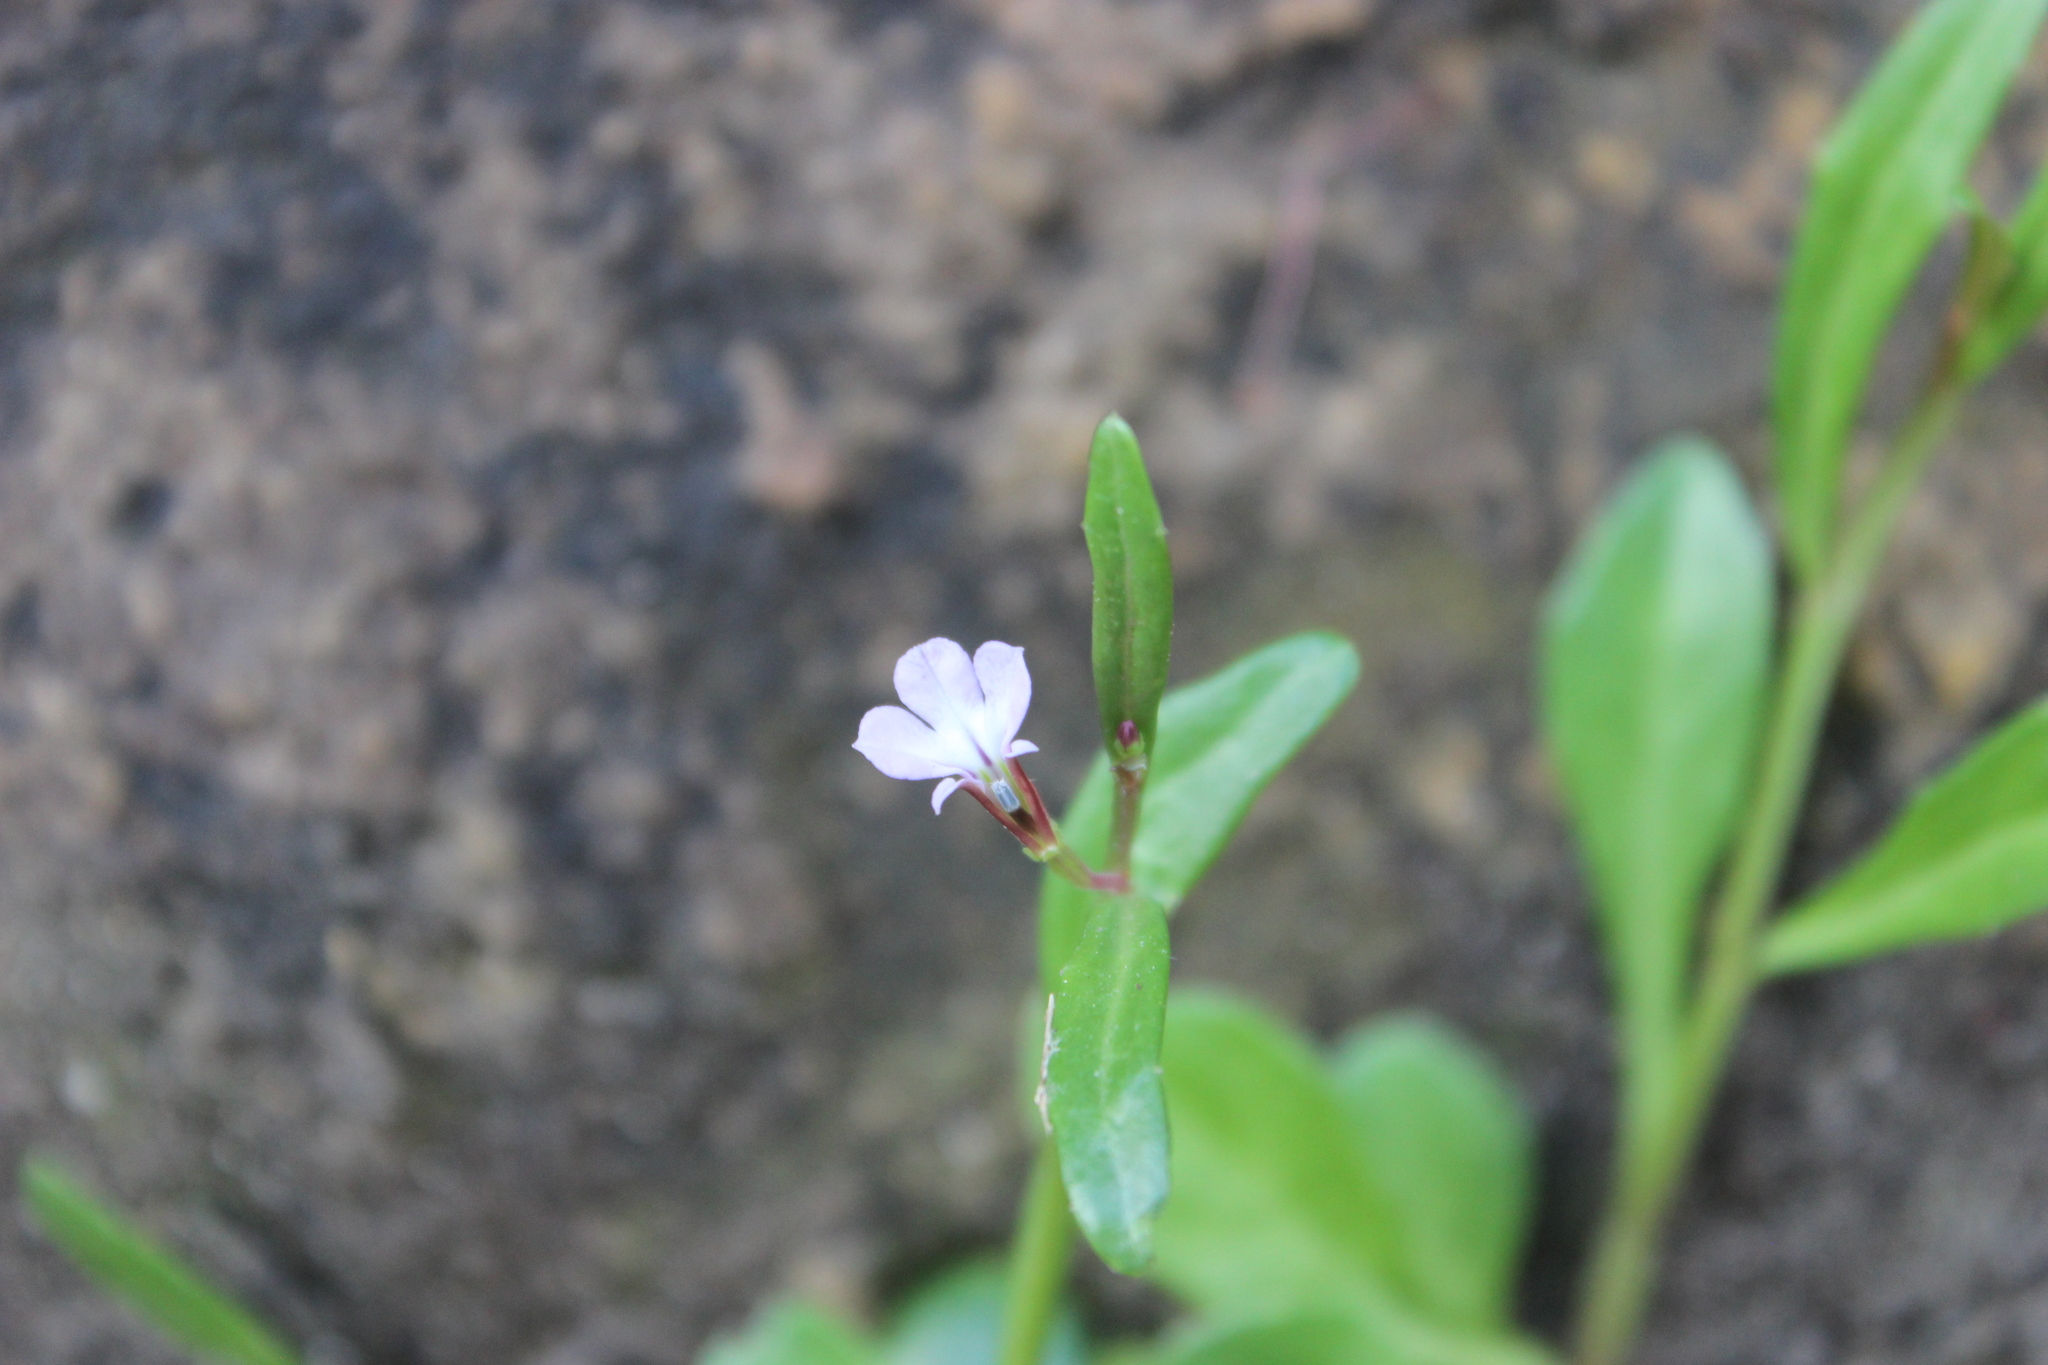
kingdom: Plantae
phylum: Tracheophyta
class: Magnoliopsida
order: Asterales
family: Campanulaceae
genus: Lobelia
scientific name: Lobelia anceps
